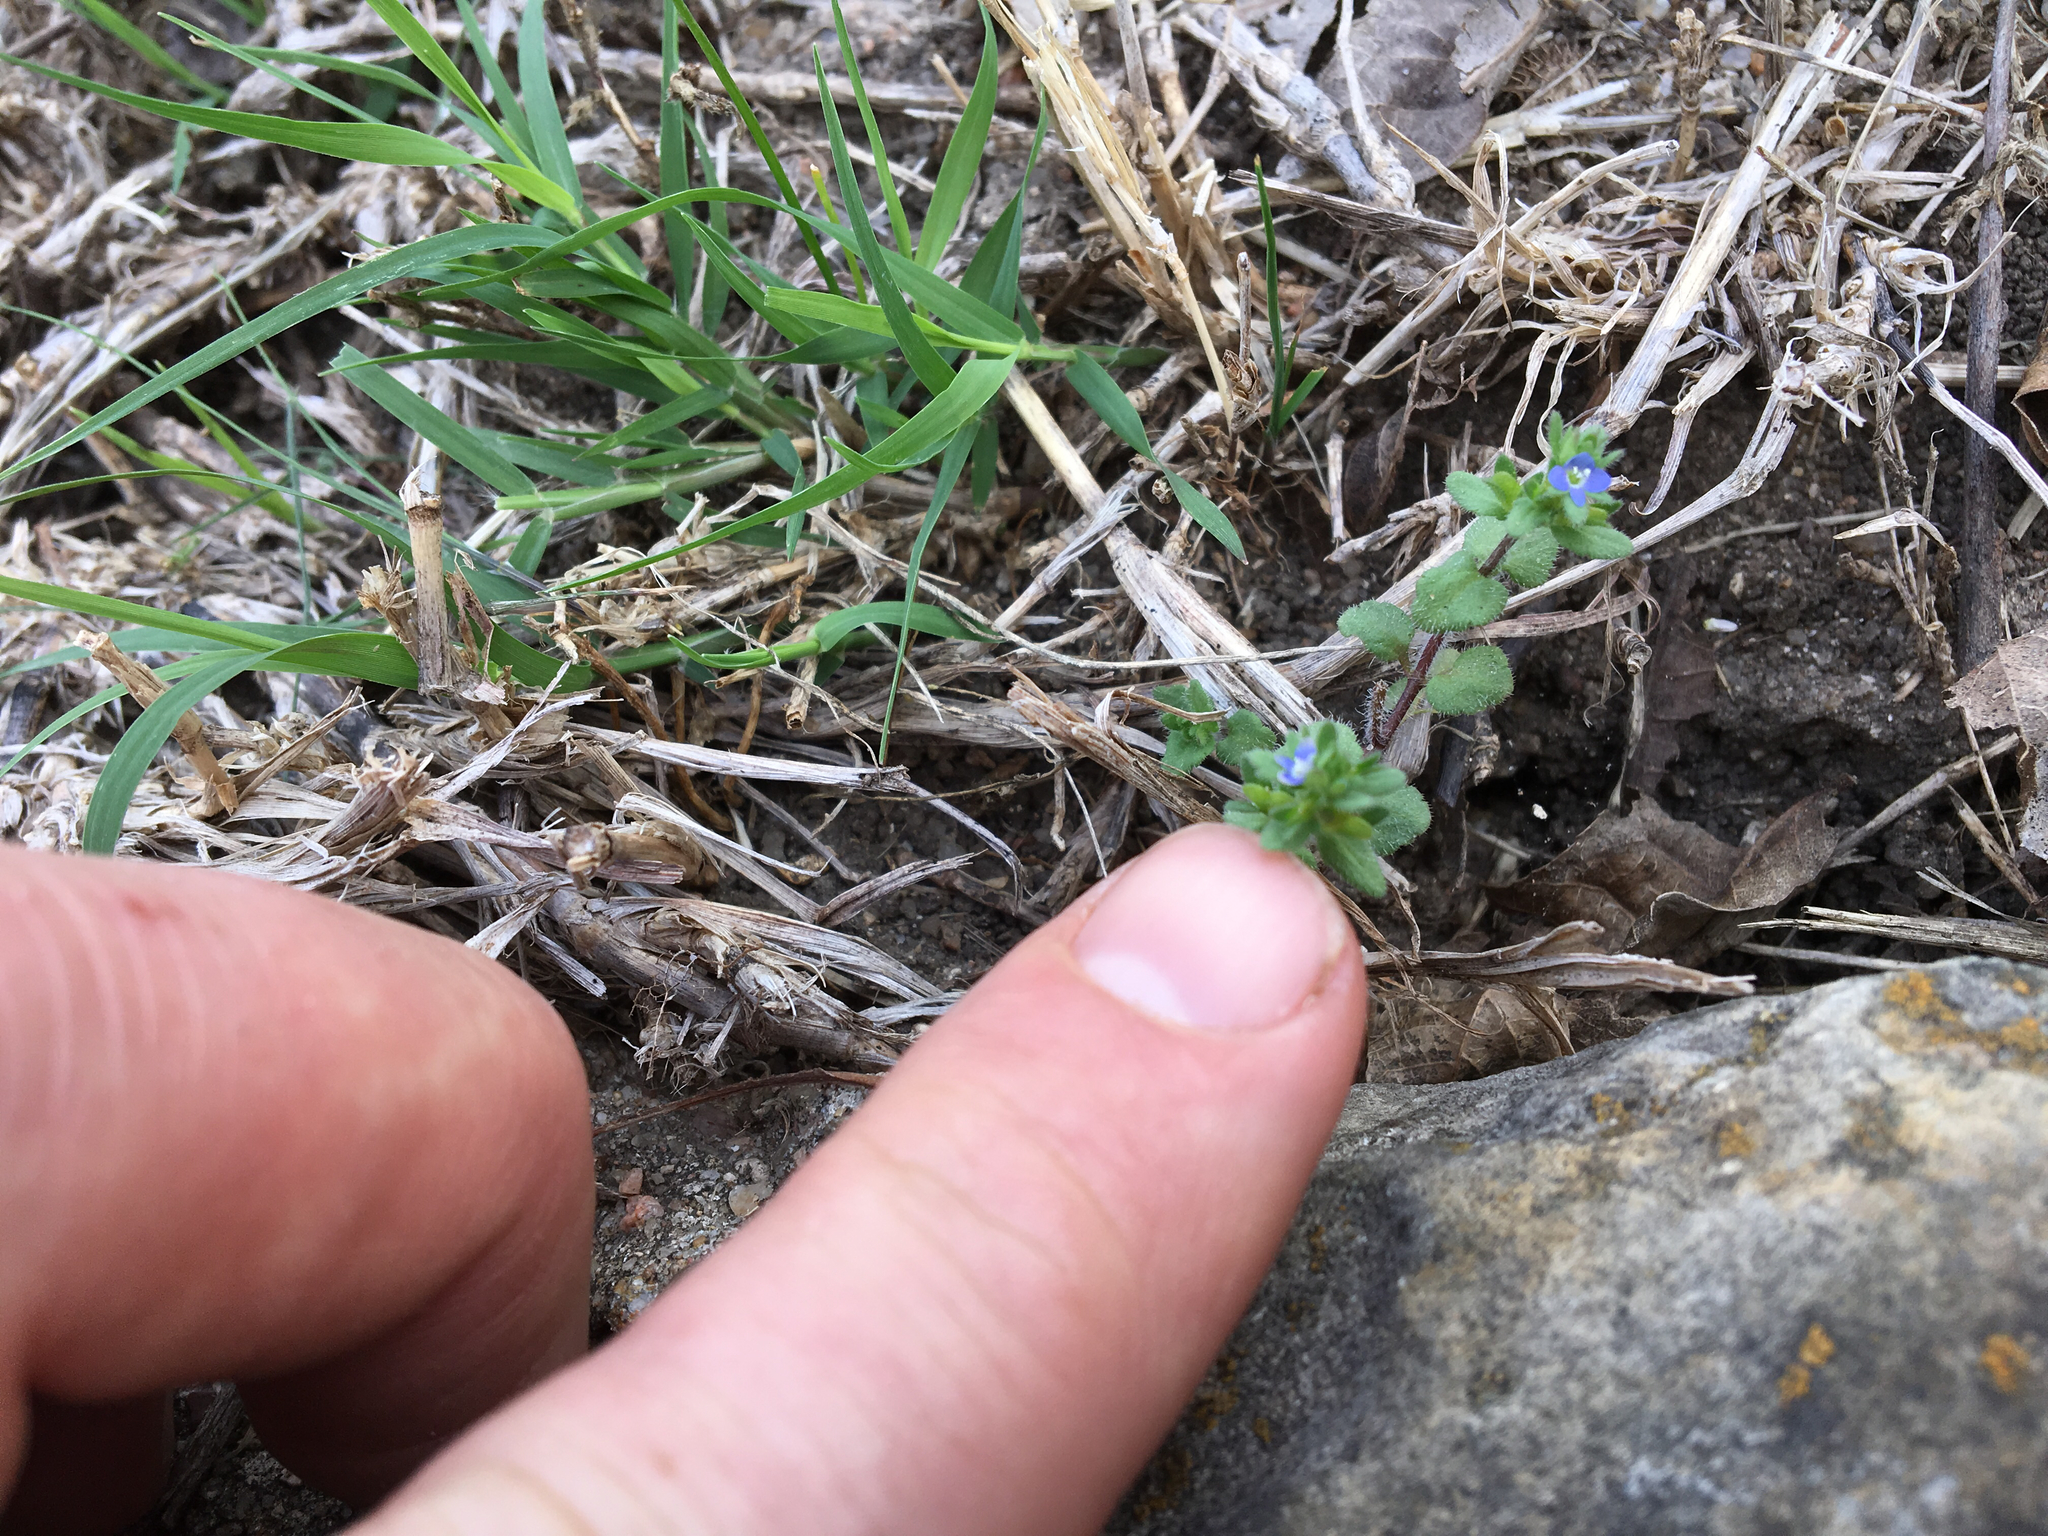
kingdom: Plantae
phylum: Tracheophyta
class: Magnoliopsida
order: Lamiales
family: Plantaginaceae
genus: Veronica
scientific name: Veronica arvensis
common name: Corn speedwell
